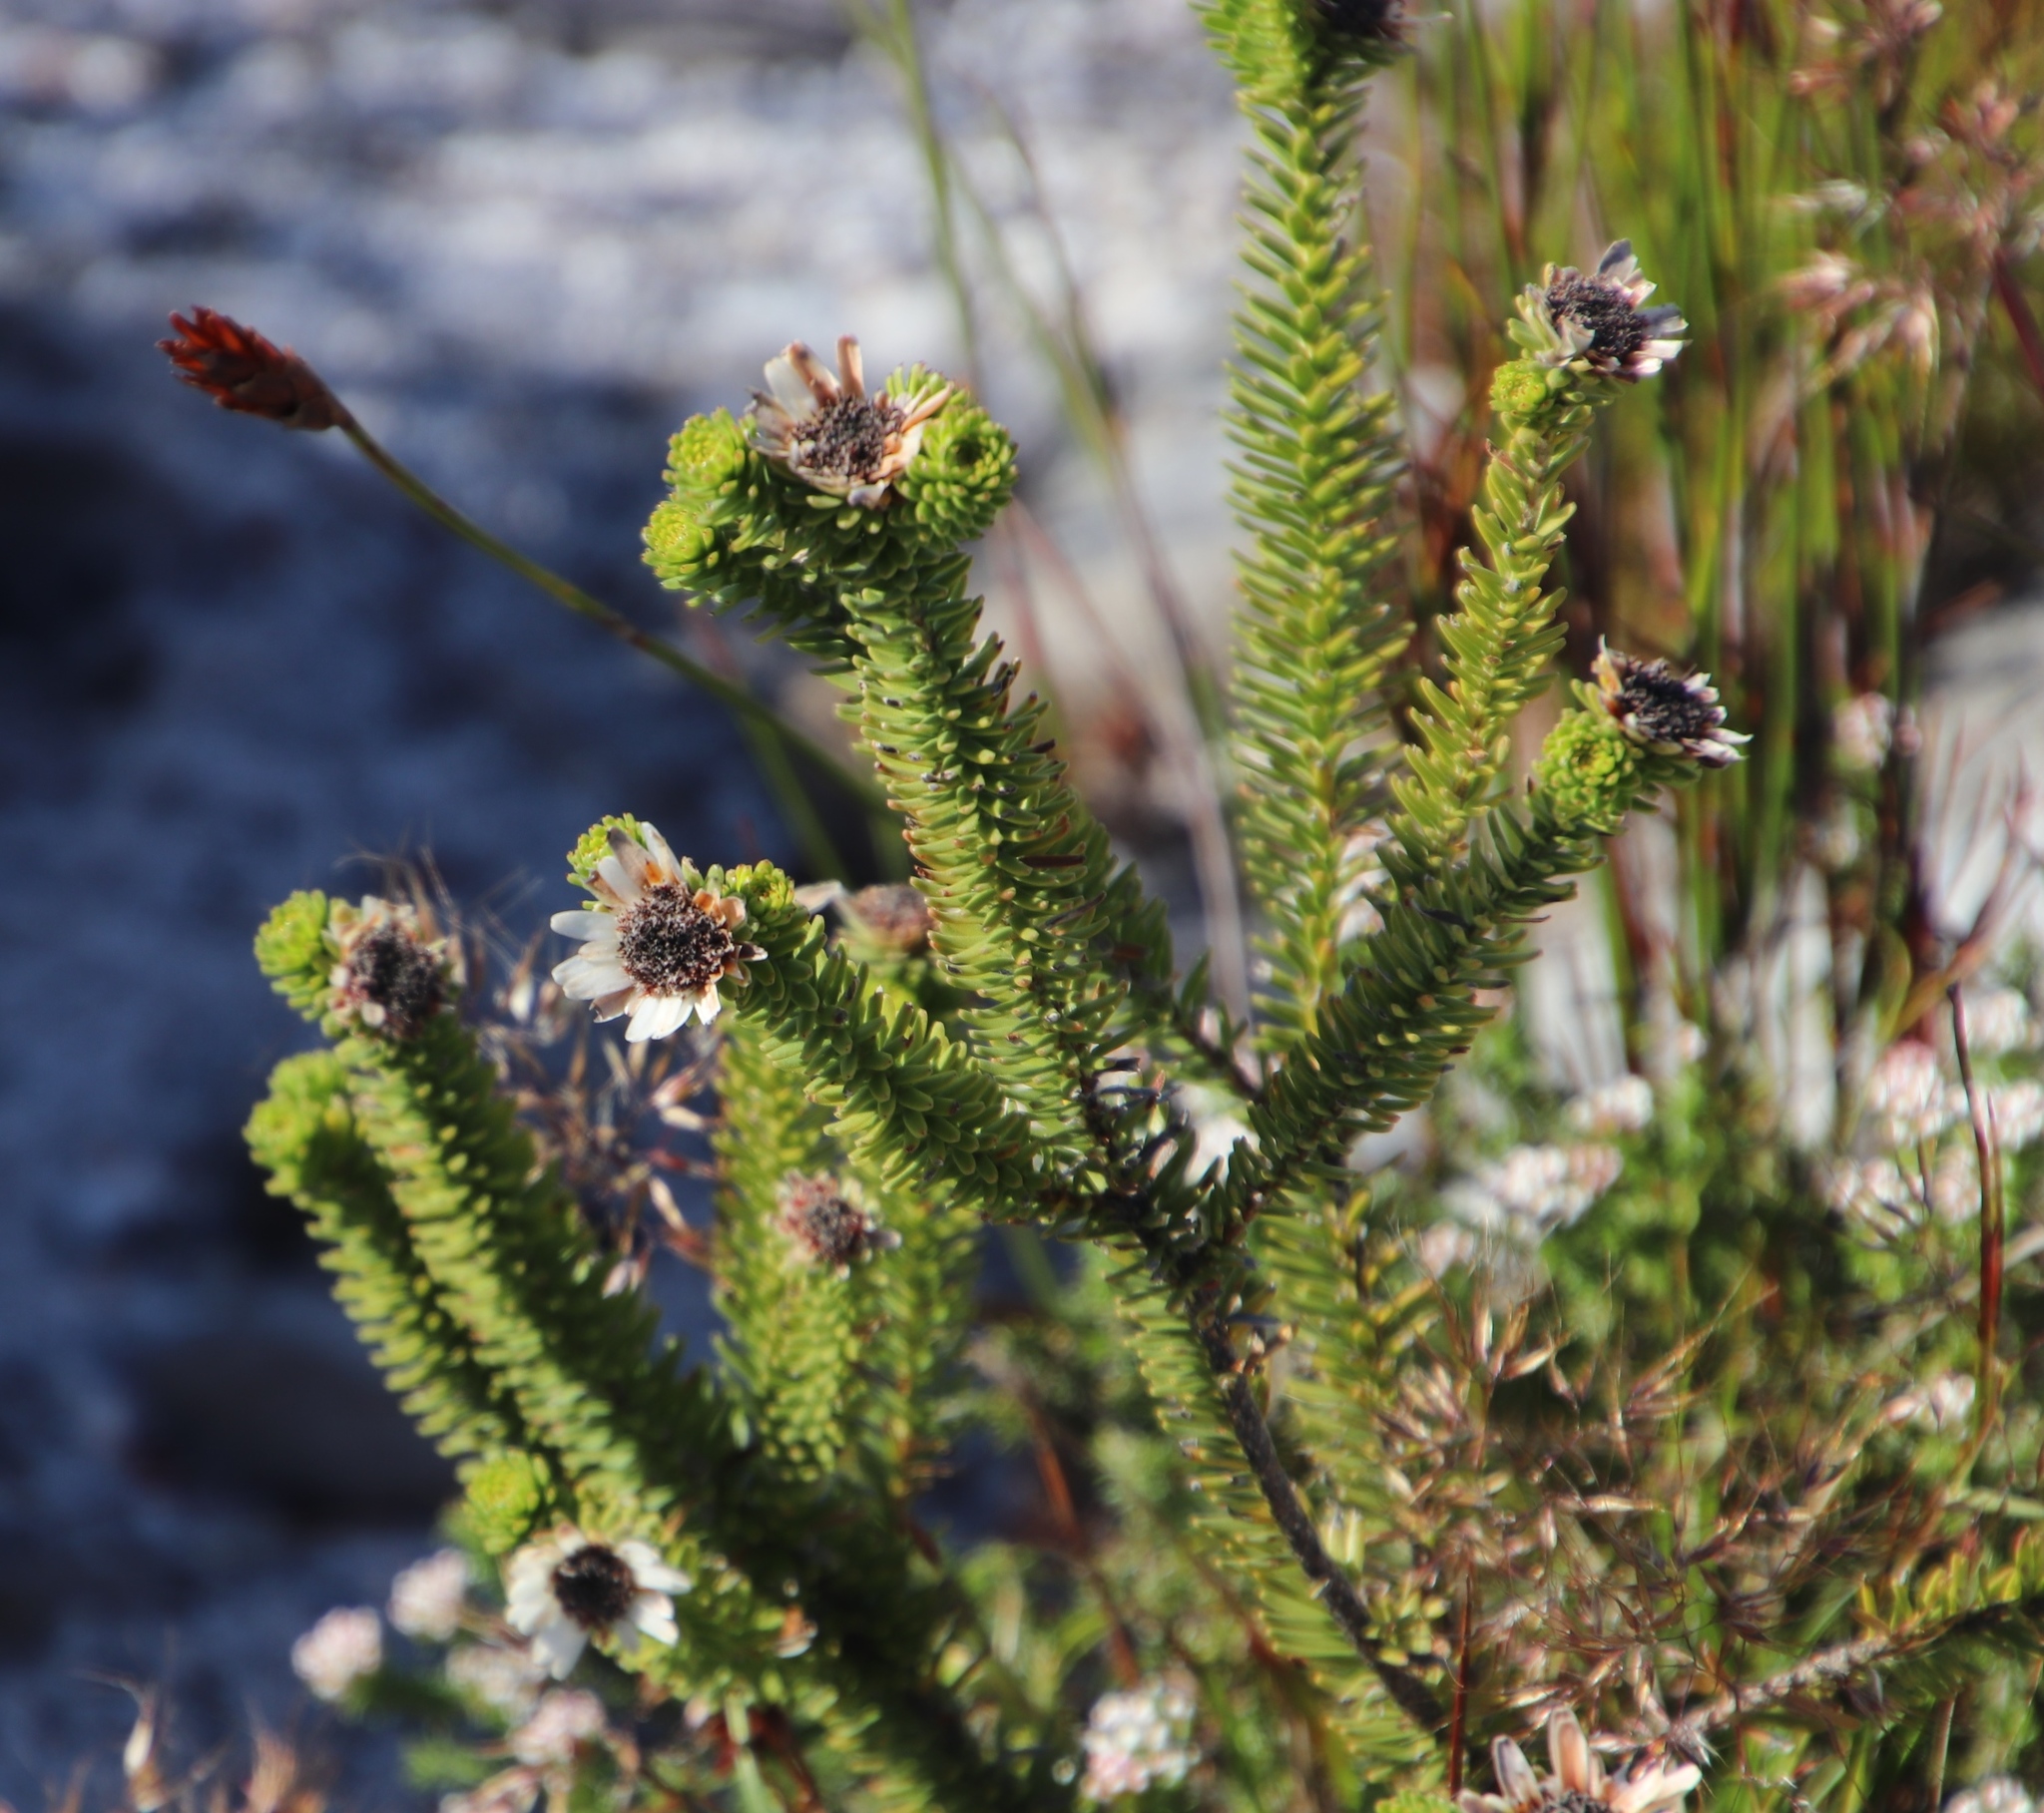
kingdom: Plantae
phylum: Tracheophyta
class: Magnoliopsida
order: Bruniales
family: Bruniaceae
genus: Staavia
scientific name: Staavia dodii
